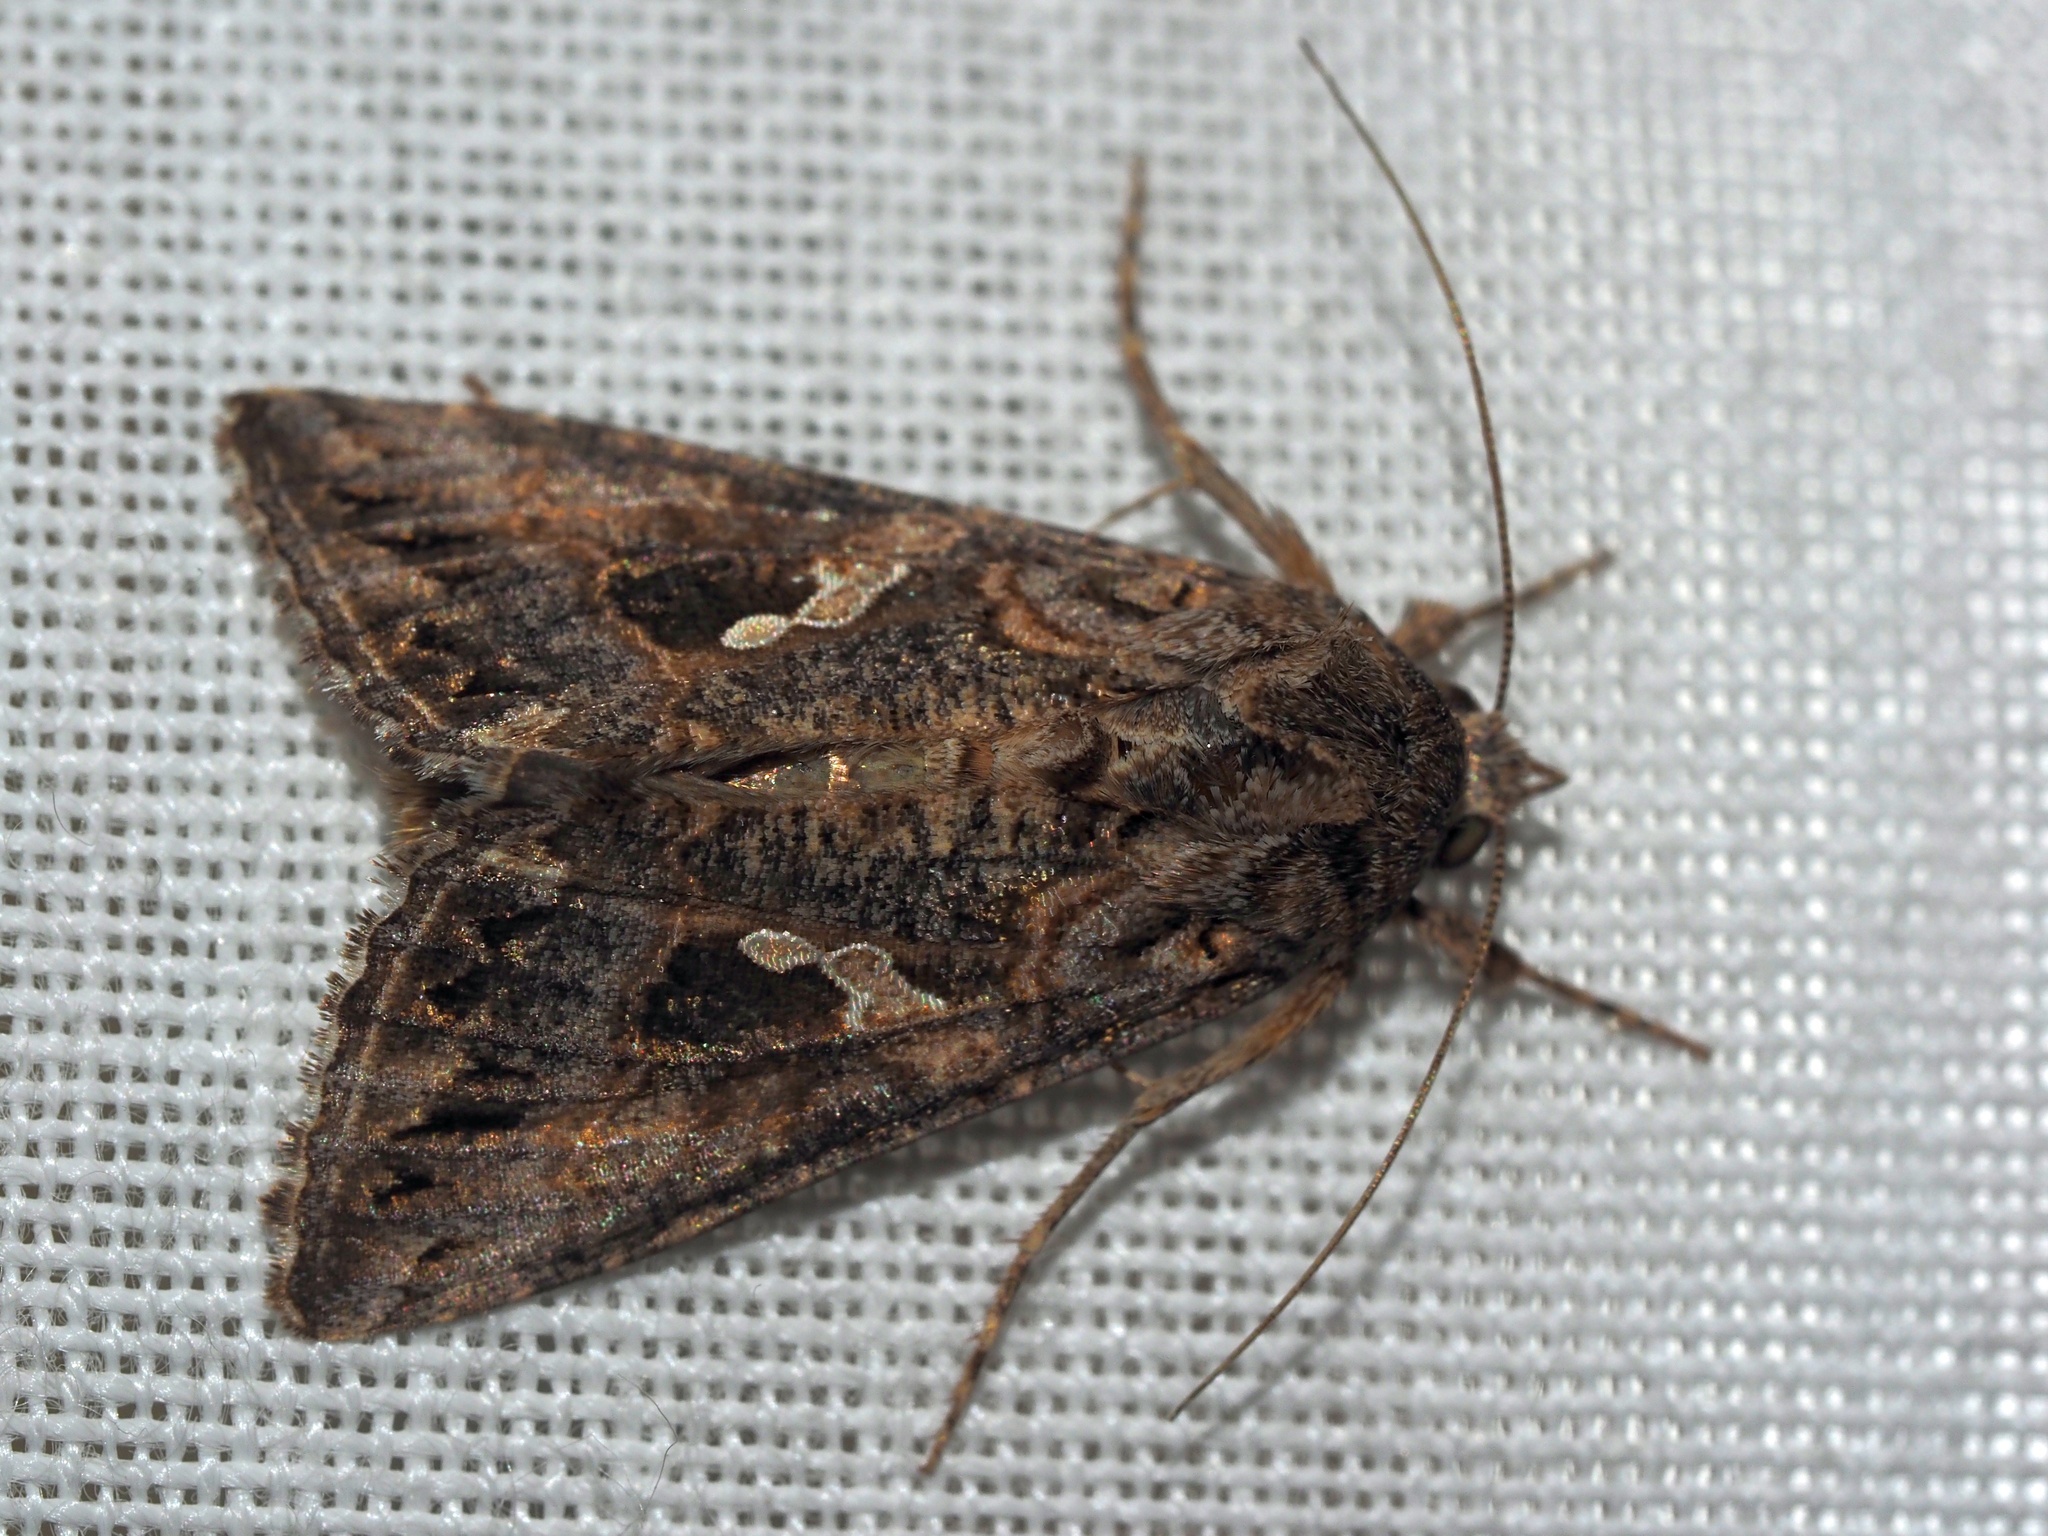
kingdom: Animalia
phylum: Arthropoda
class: Insecta
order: Lepidoptera
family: Noctuidae
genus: Trichoplusia
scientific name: Trichoplusia ni
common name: Ni moth
